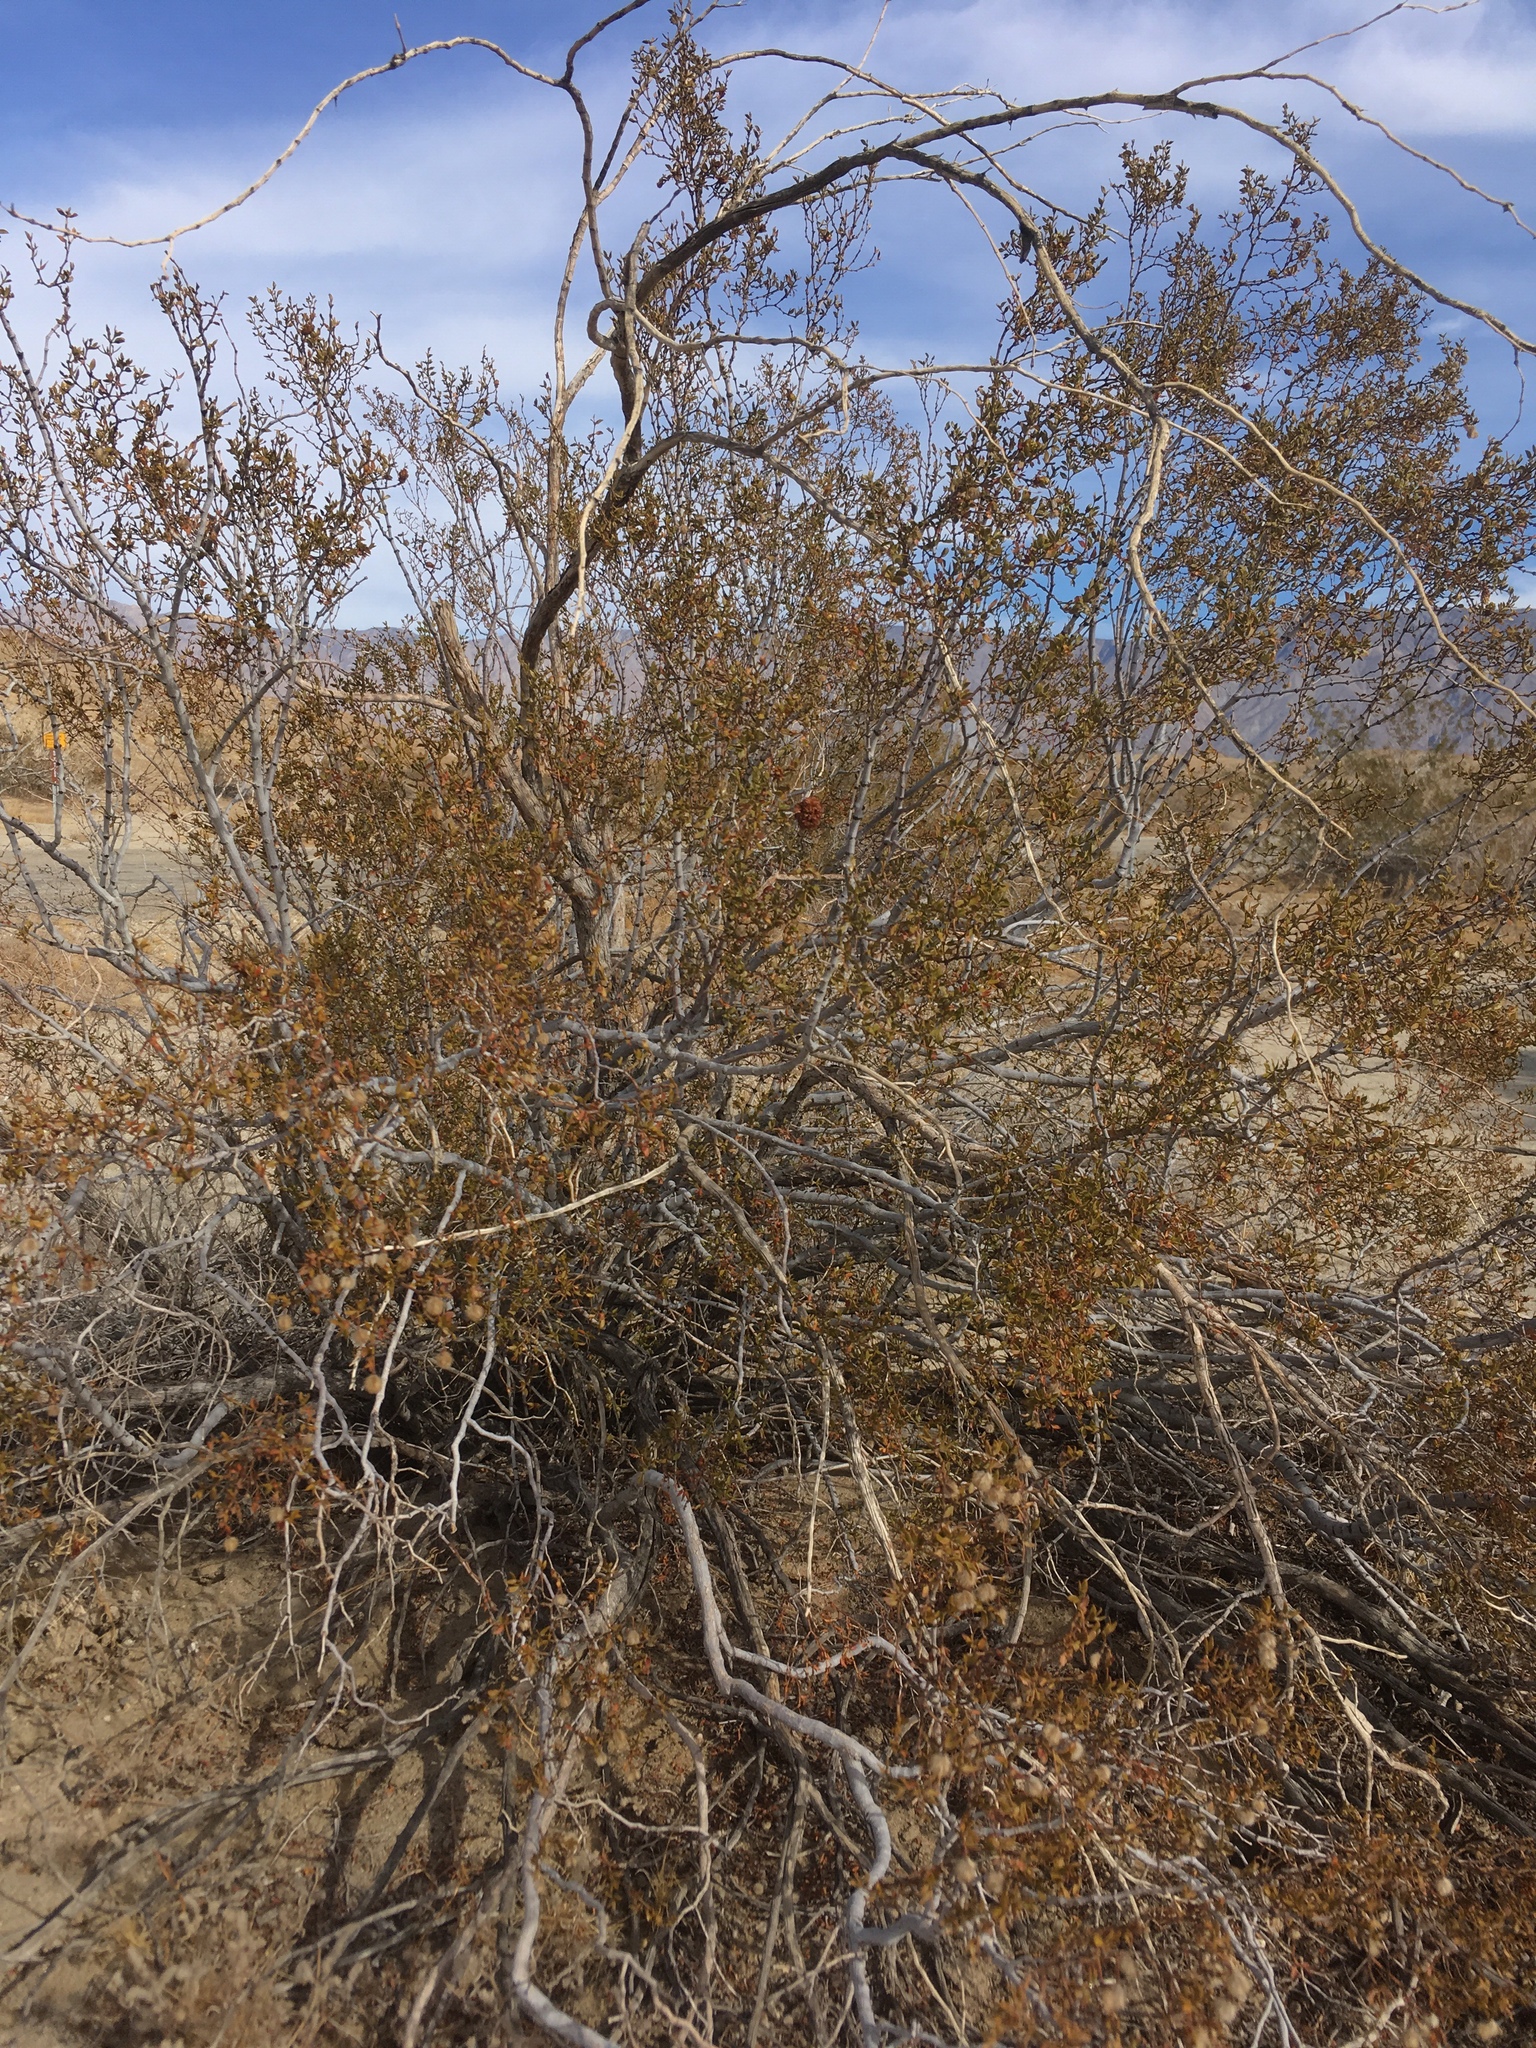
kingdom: Animalia
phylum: Arthropoda
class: Insecta
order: Diptera
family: Cecidomyiidae
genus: Asphondylia
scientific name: Asphondylia auripila
